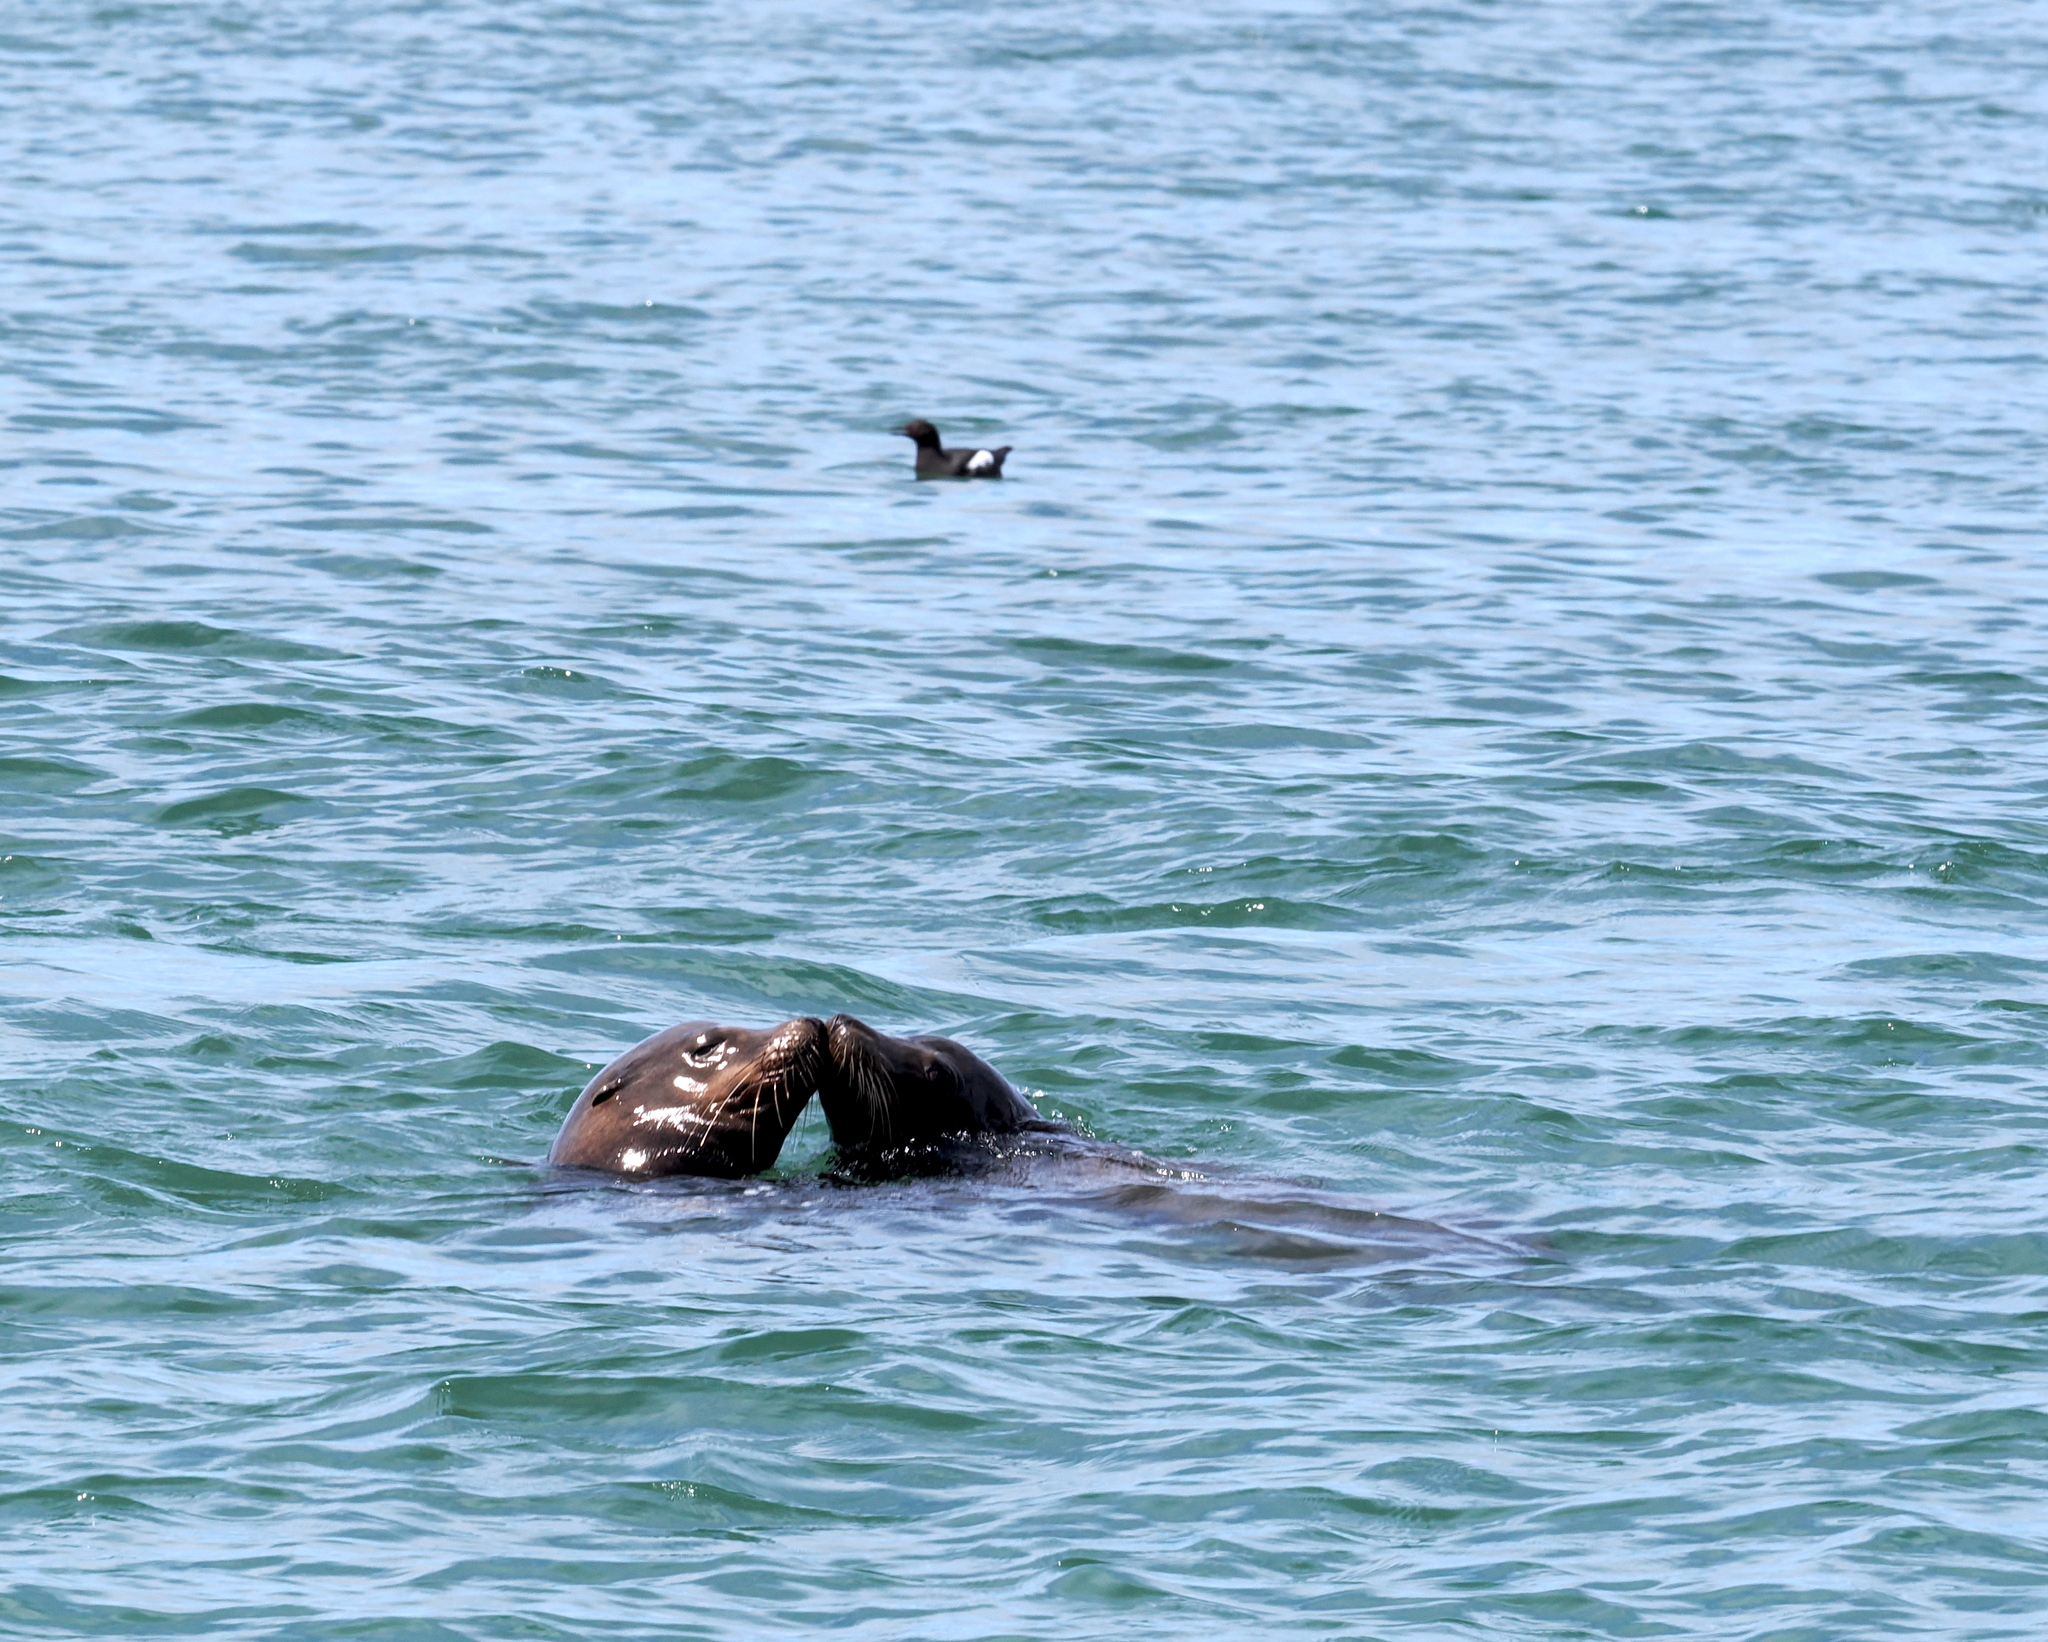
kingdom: Animalia
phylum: Chordata
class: Mammalia
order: Carnivora
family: Otariidae
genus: Zalophus
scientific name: Zalophus californianus
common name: California sea lion
